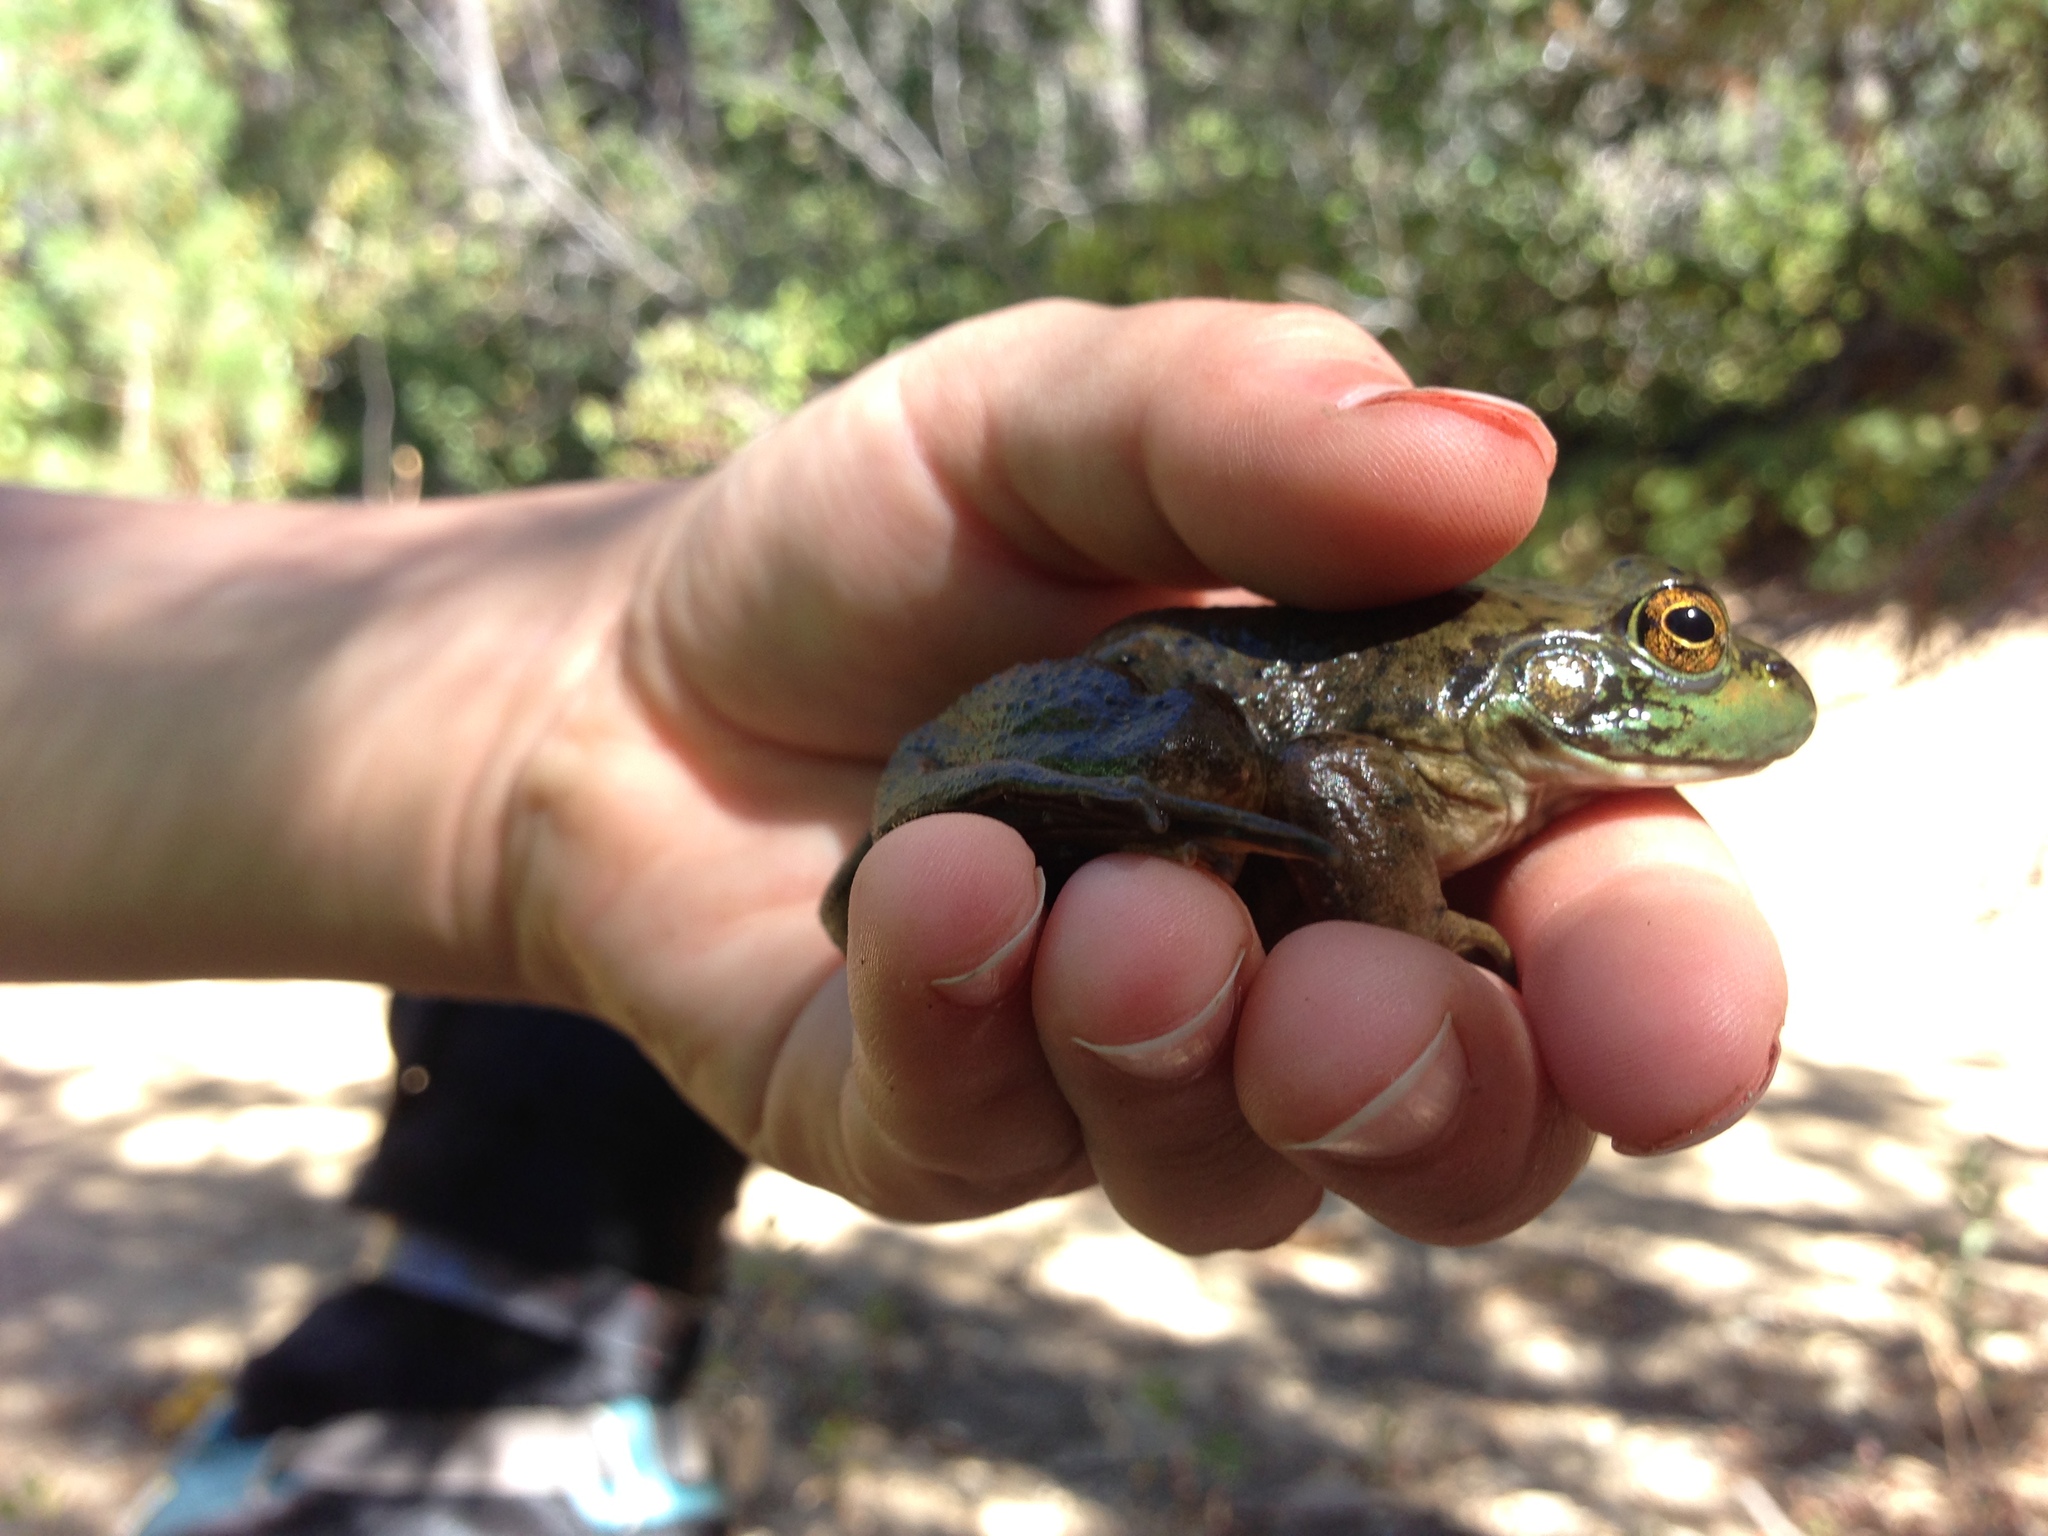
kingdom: Animalia
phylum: Chordata
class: Amphibia
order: Anura
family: Ranidae
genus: Lithobates
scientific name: Lithobates catesbeianus
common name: American bullfrog
